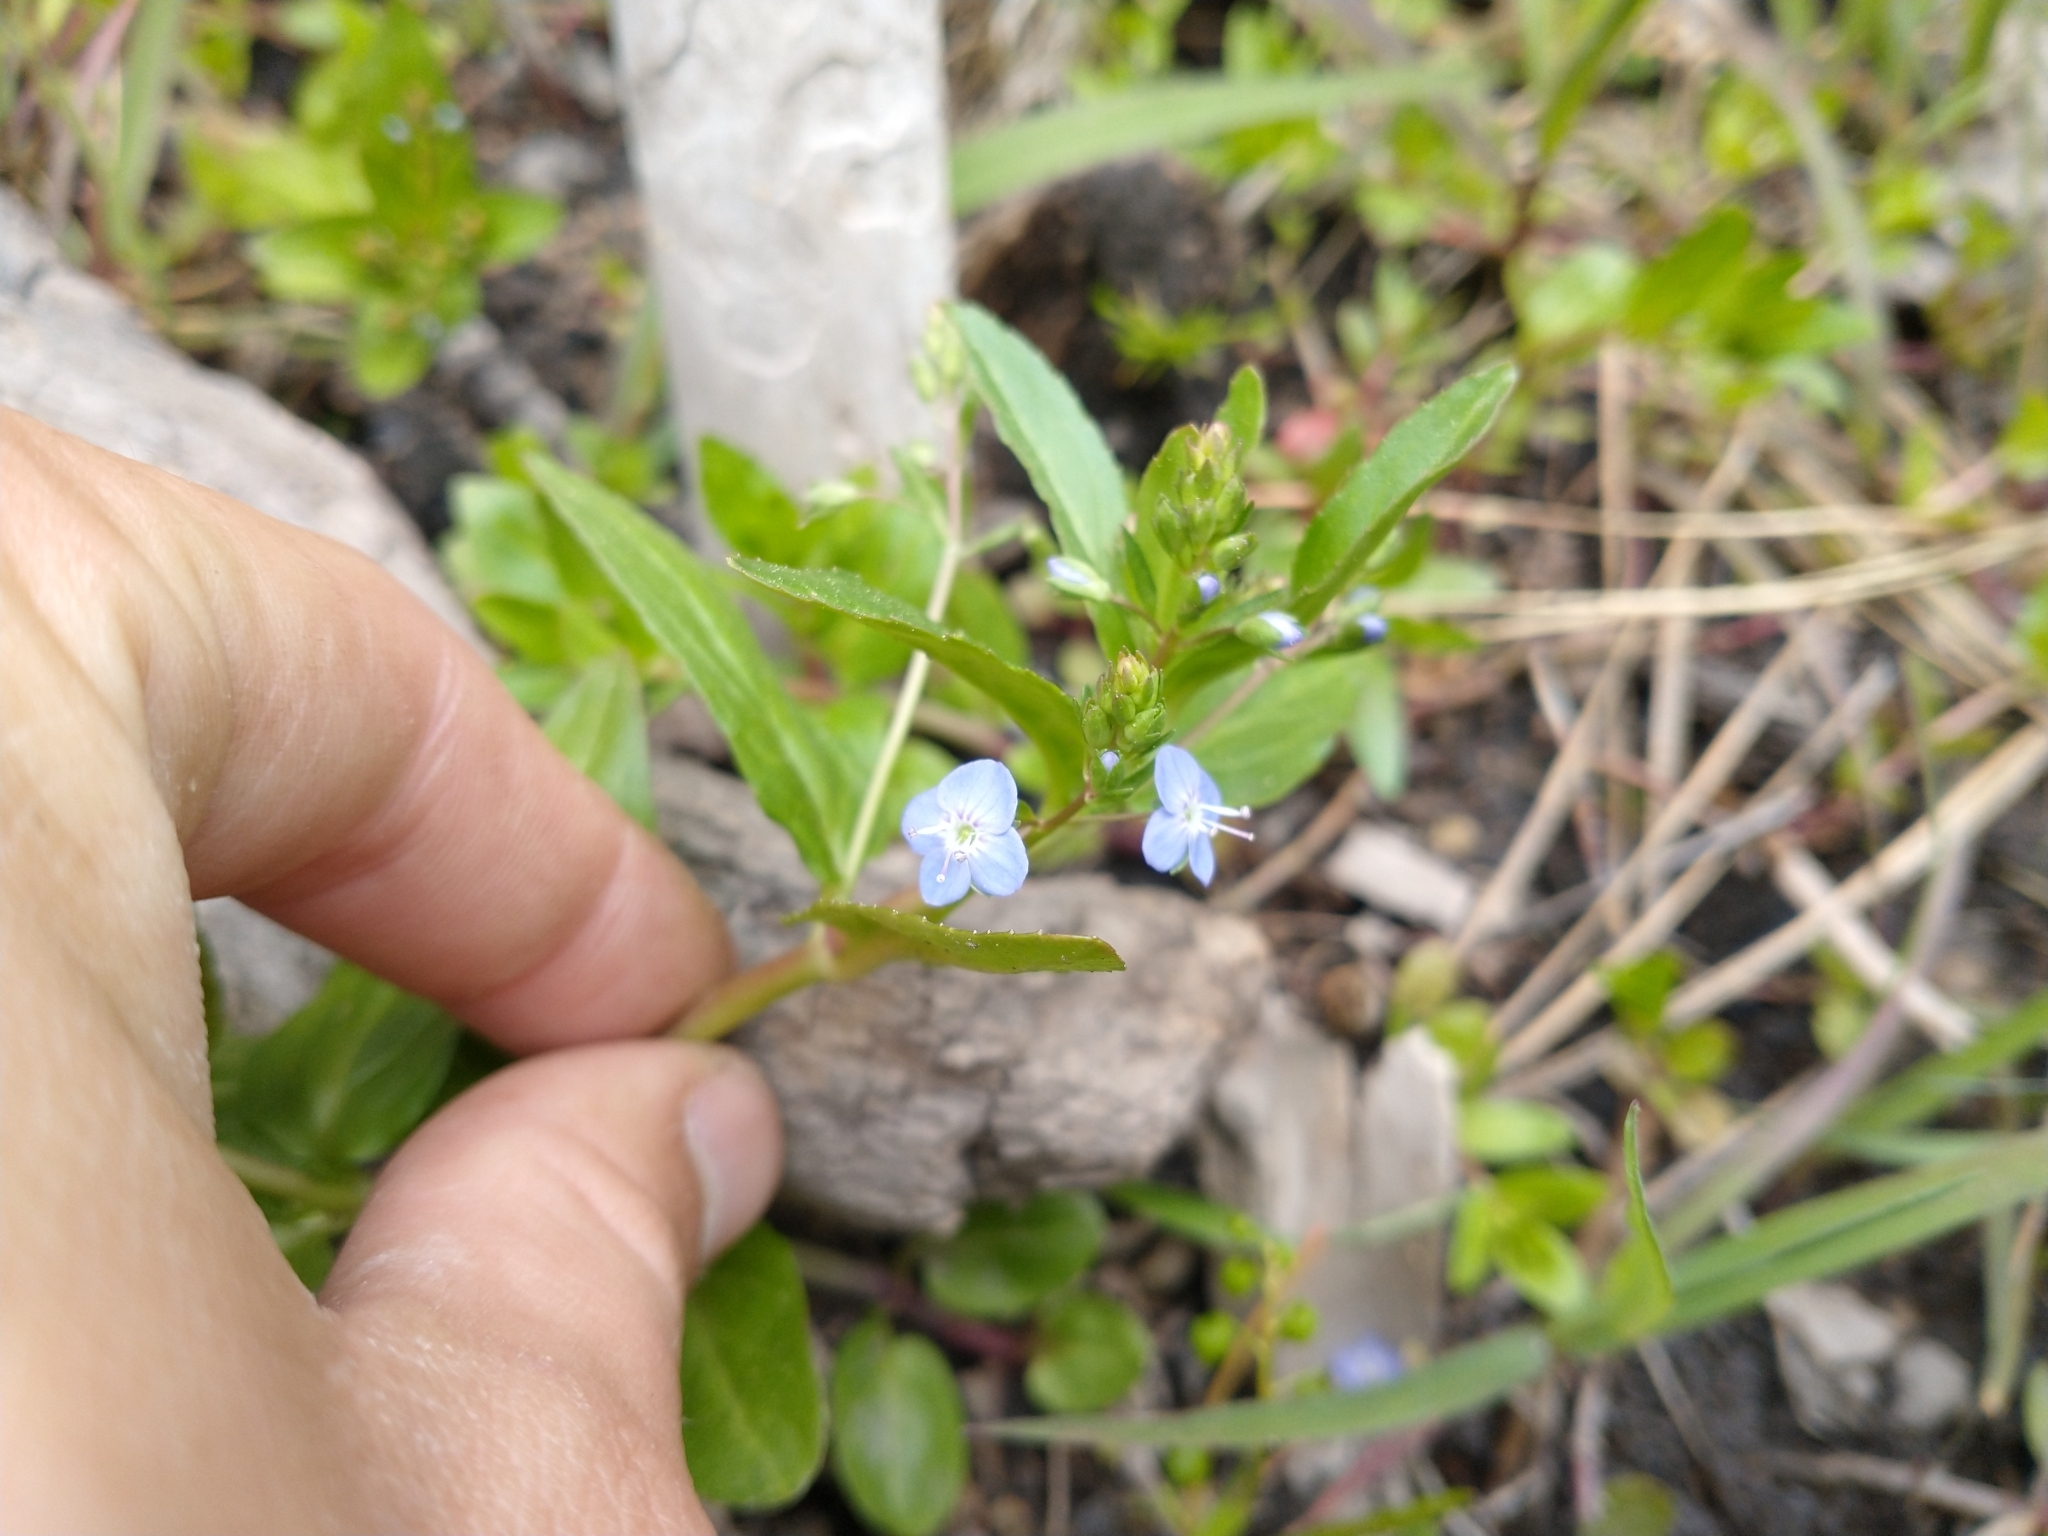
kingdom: Plantae
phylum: Tracheophyta
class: Magnoliopsida
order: Lamiales
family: Plantaginaceae
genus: Veronica
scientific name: Veronica americana
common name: American brooklime
